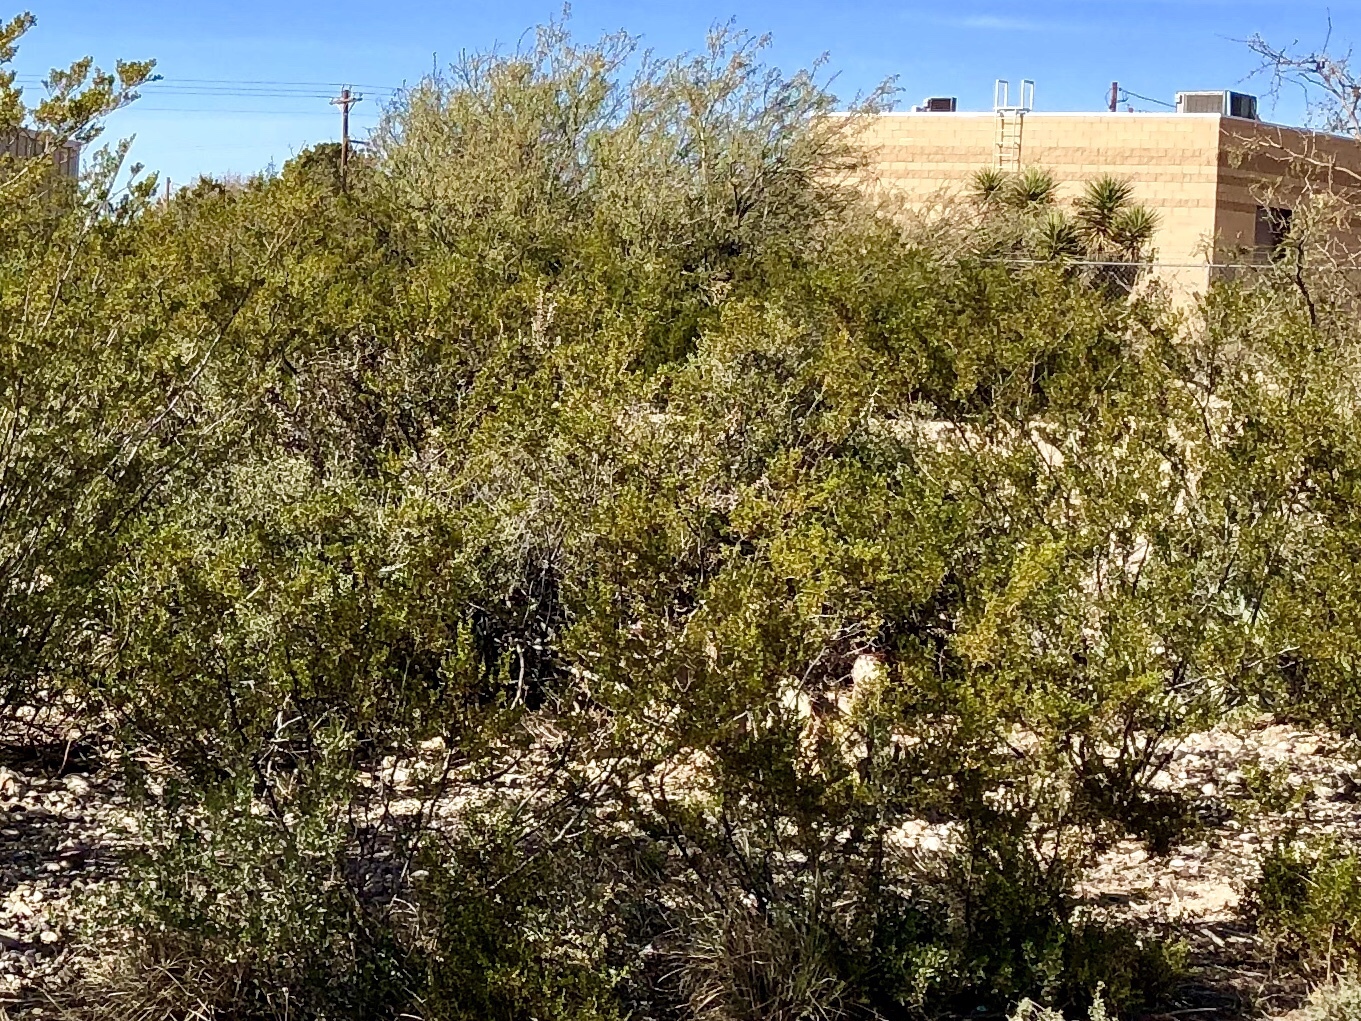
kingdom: Plantae
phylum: Tracheophyta
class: Magnoliopsida
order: Zygophyllales
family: Zygophyllaceae
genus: Larrea
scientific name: Larrea tridentata
